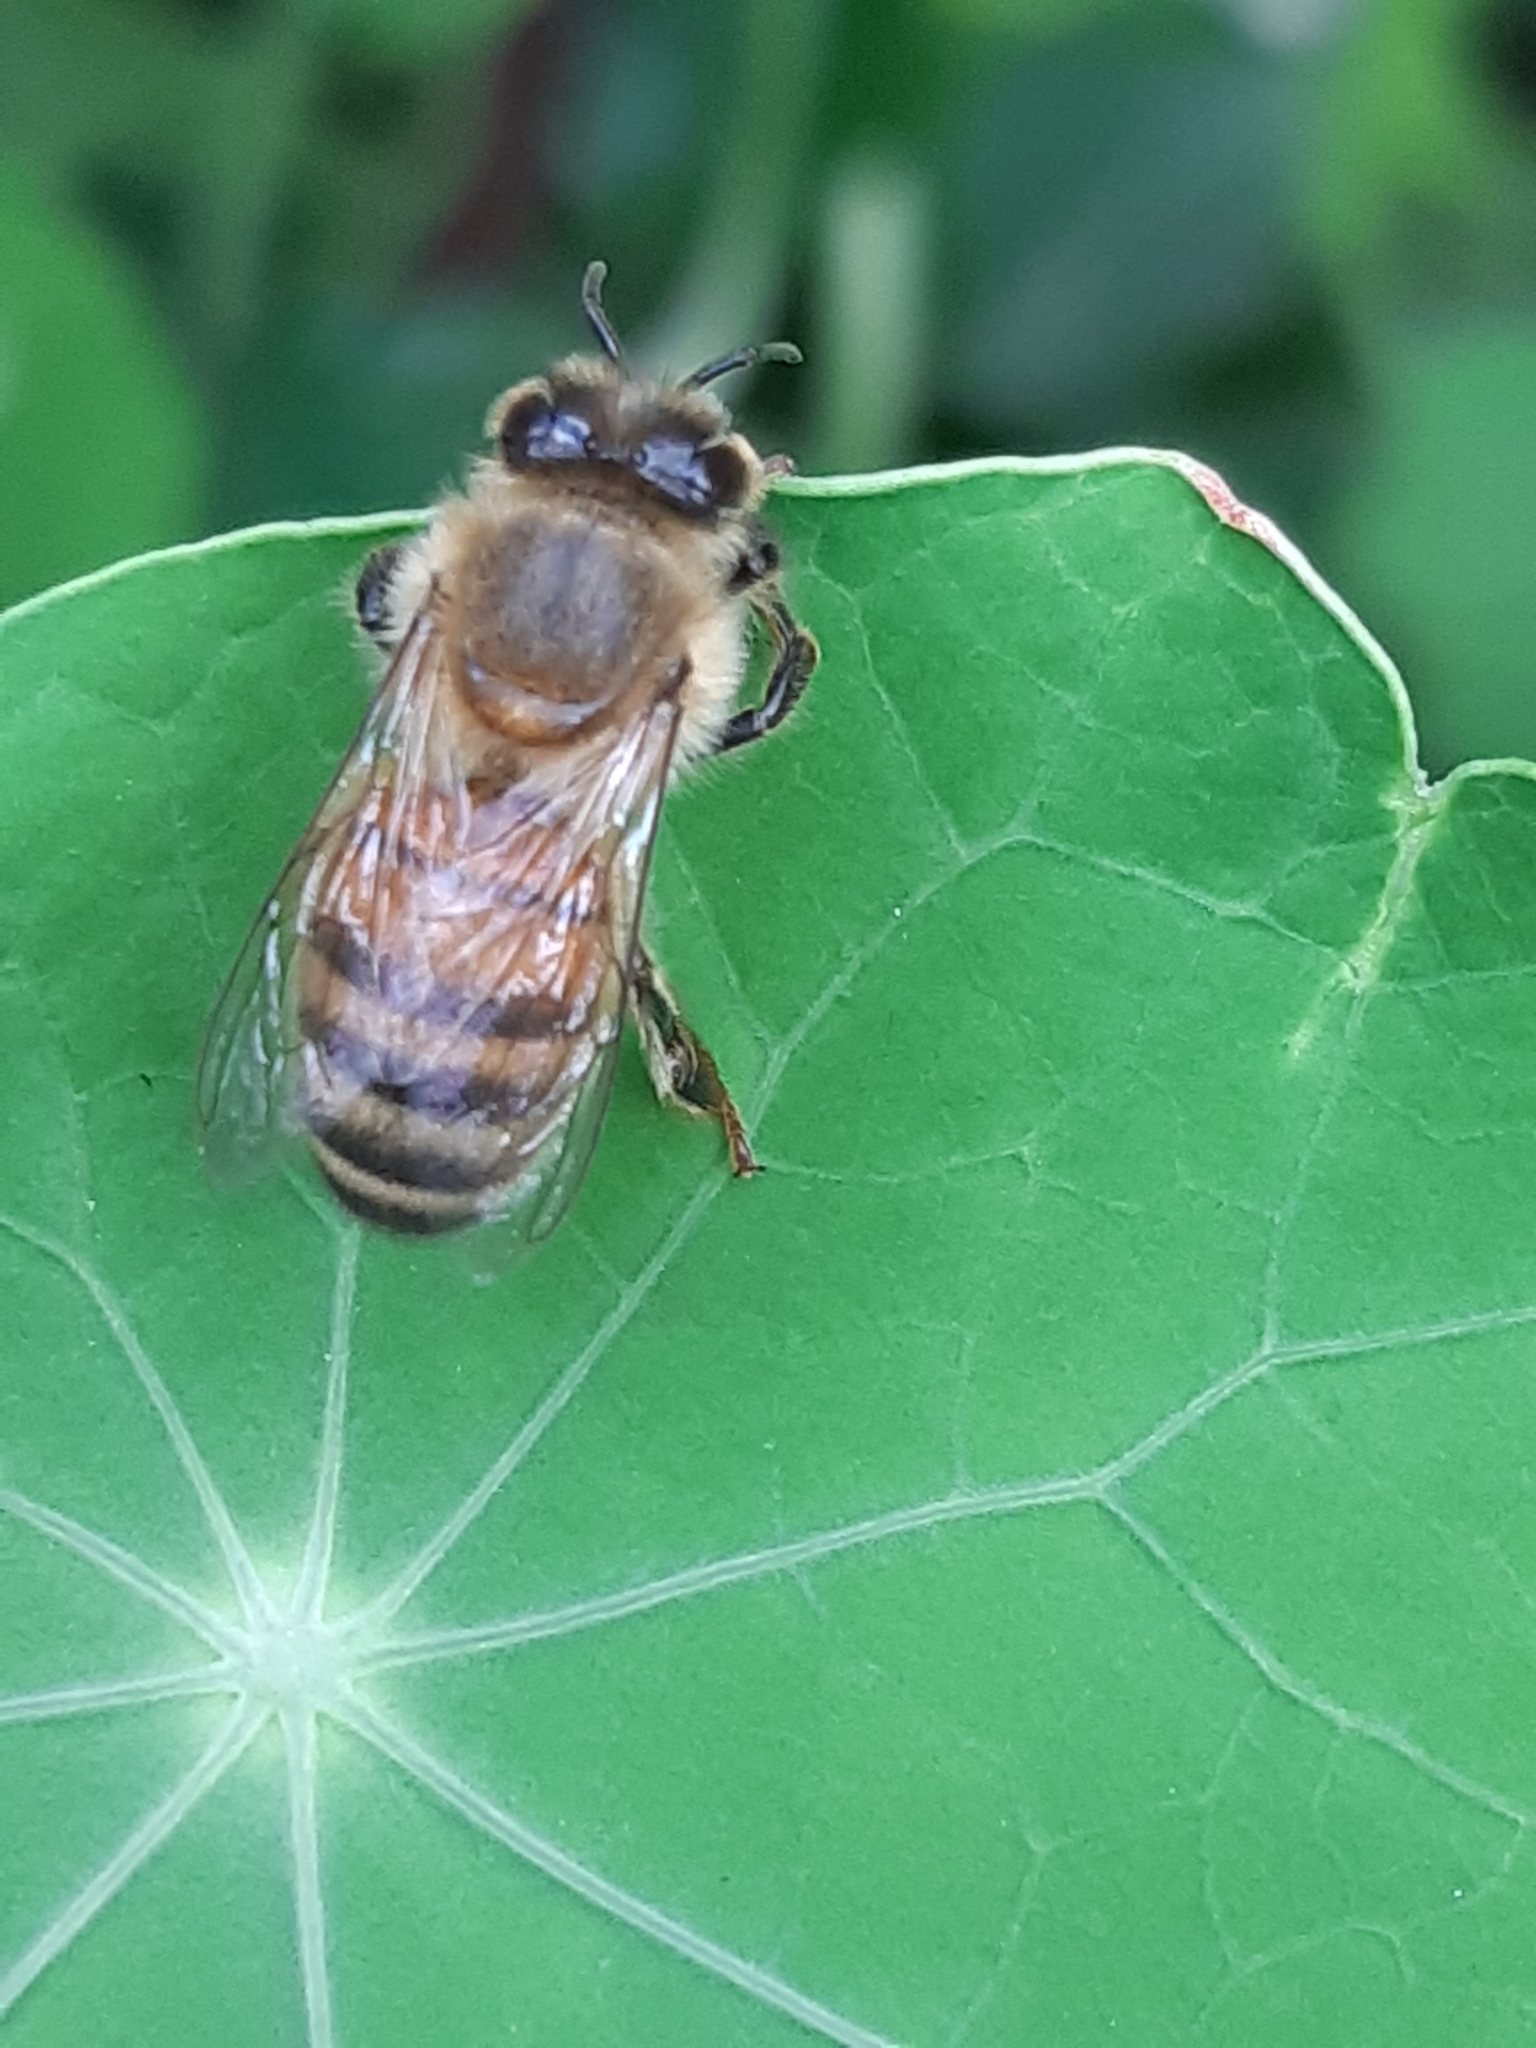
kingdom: Animalia
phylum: Arthropoda
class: Insecta
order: Hymenoptera
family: Apidae
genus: Apis
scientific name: Apis mellifera
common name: Honey bee
